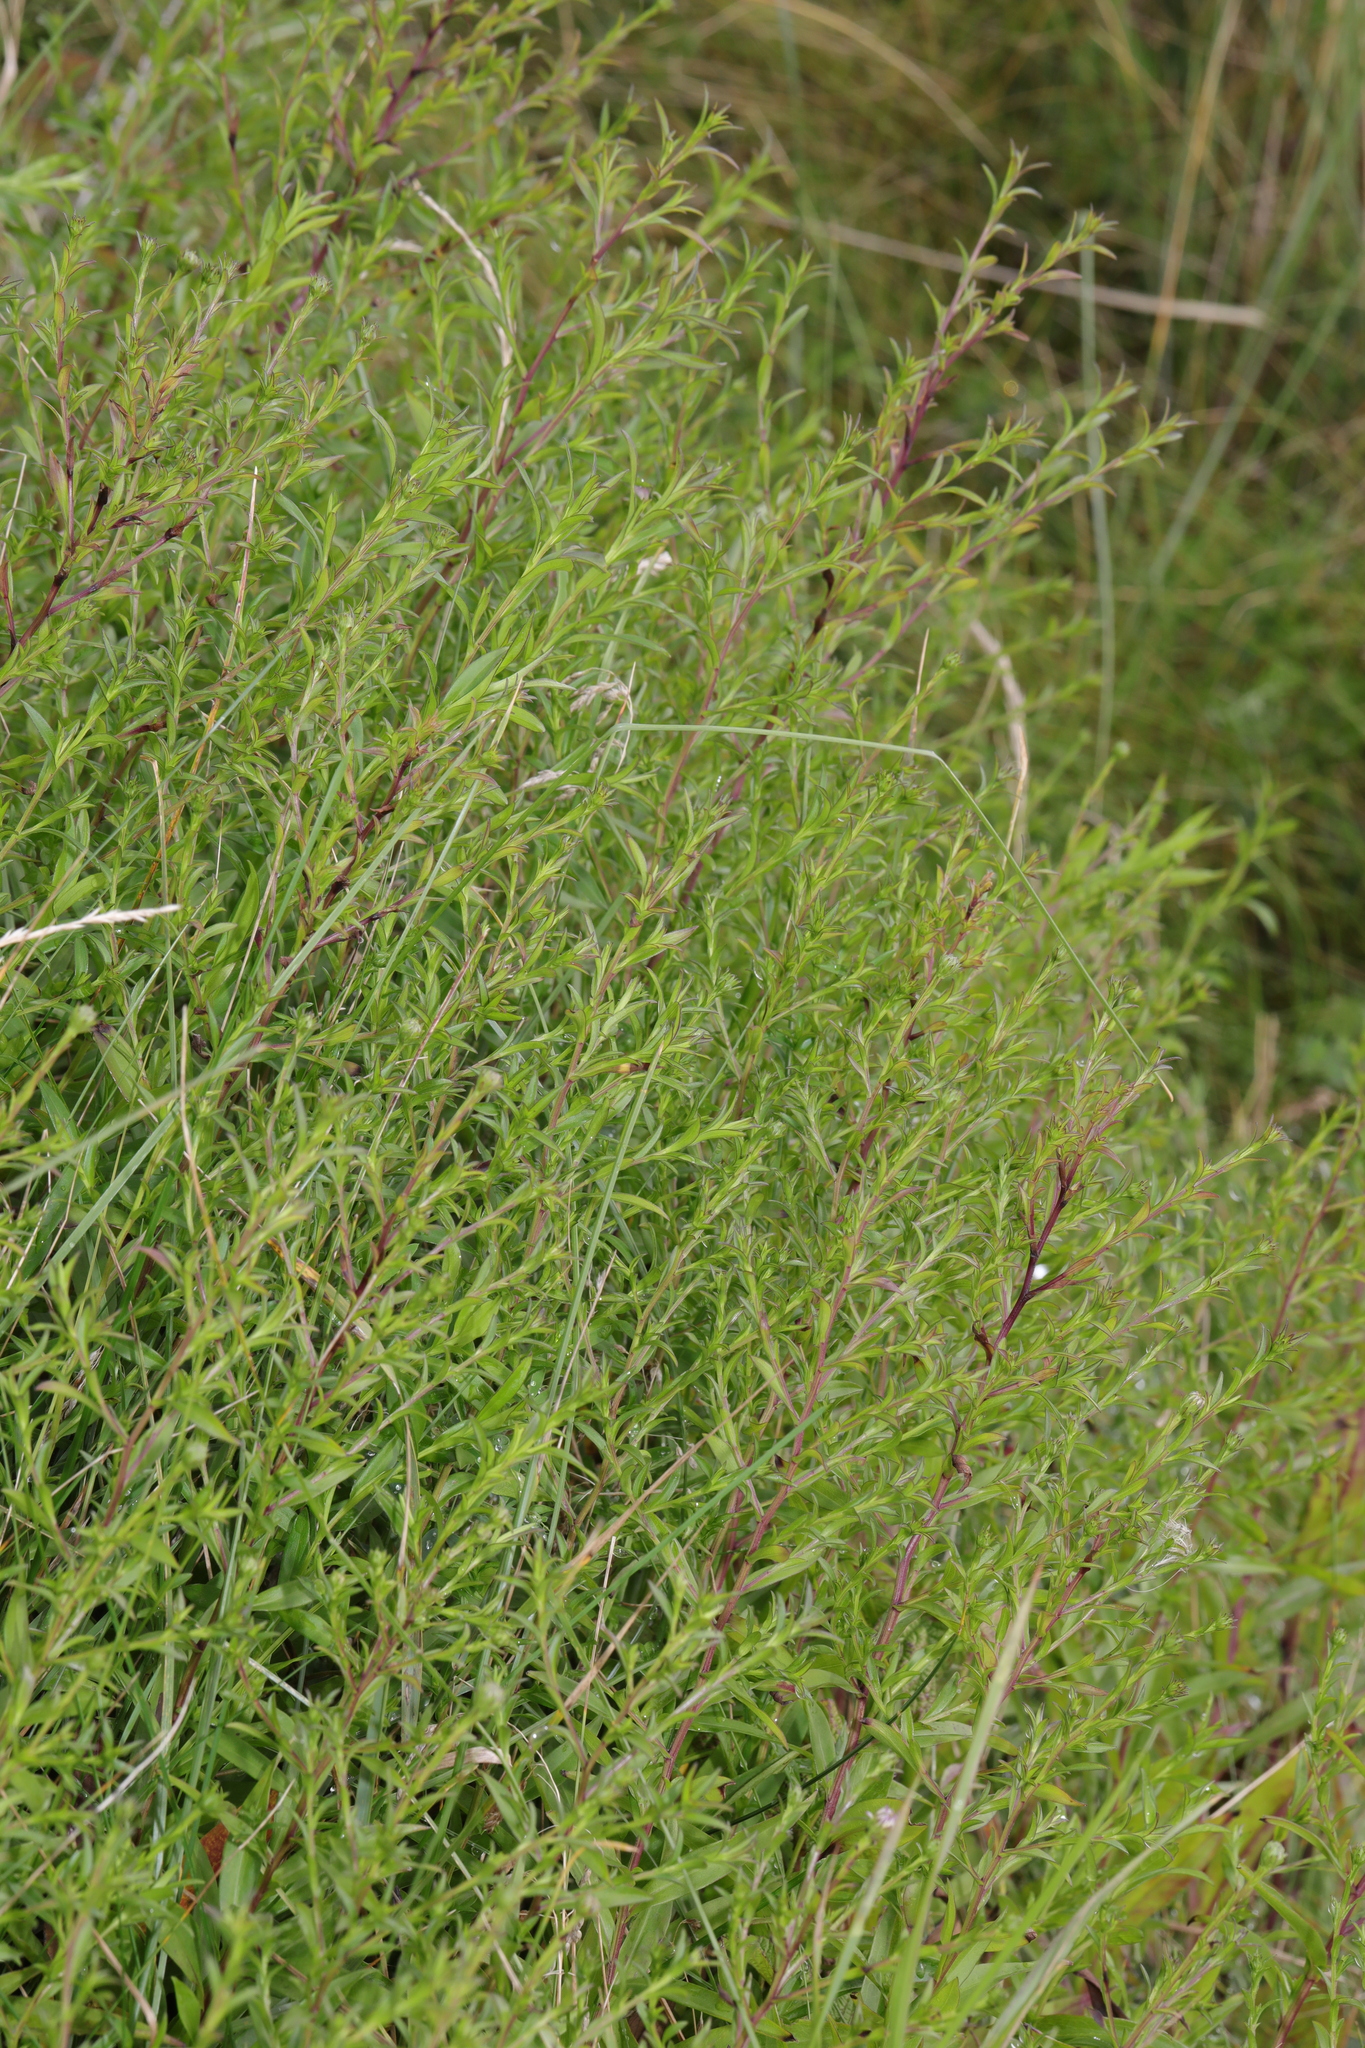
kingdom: Plantae
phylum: Tracheophyta
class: Magnoliopsida
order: Asterales
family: Asteraceae
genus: Symphyotrichum
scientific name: Symphyotrichum lanceolatum
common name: Panicled aster
